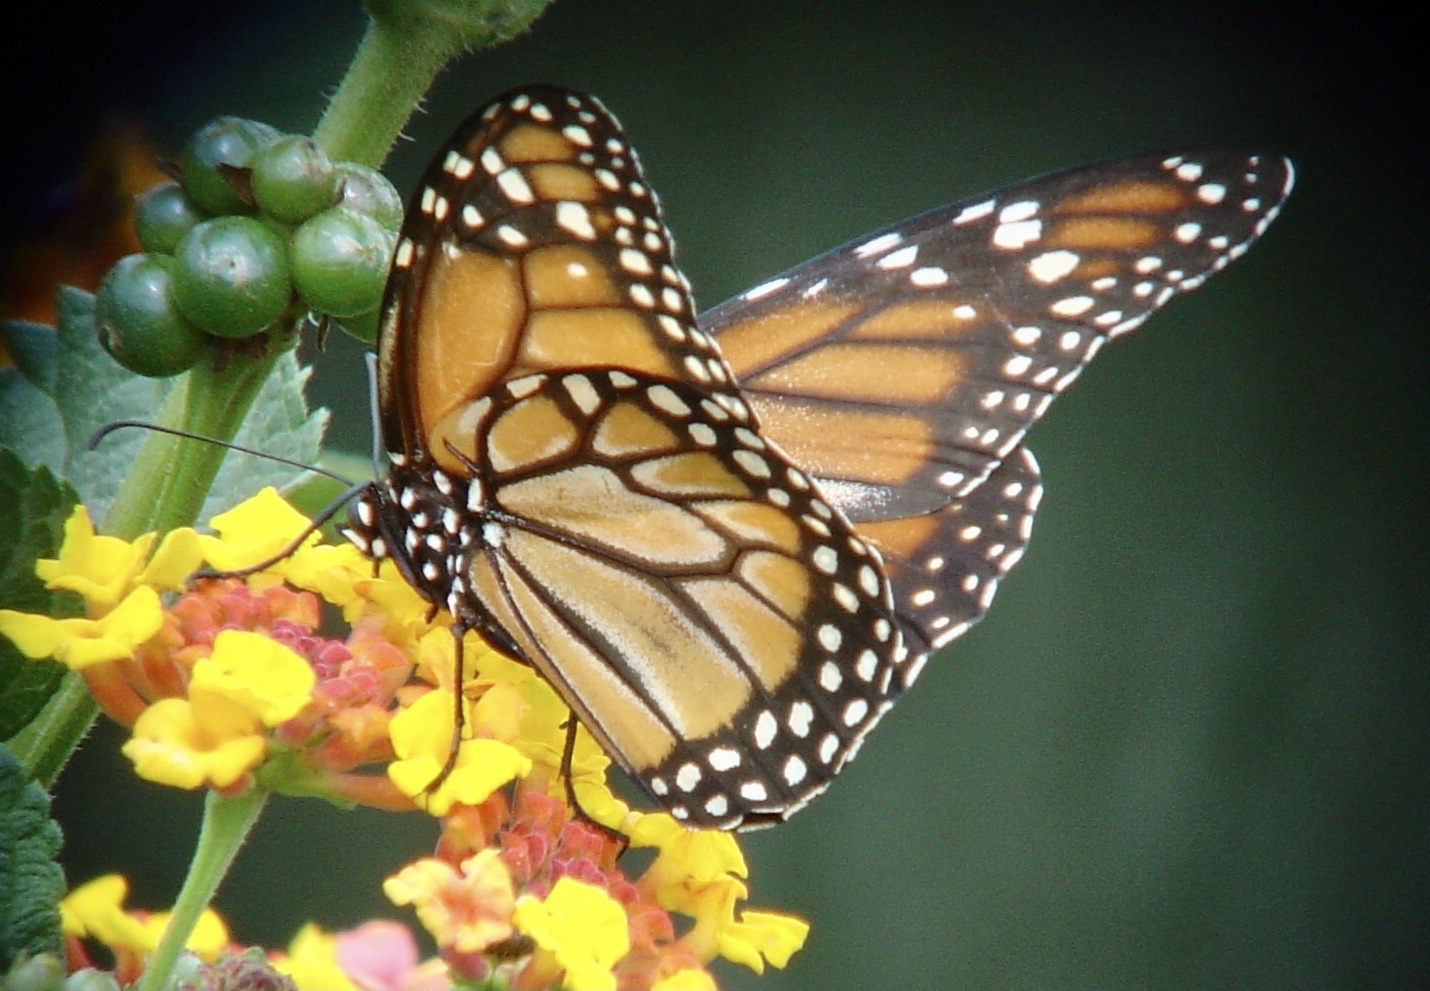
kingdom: Animalia
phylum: Arthropoda
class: Insecta
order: Lepidoptera
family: Nymphalidae
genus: Danaus
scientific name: Danaus erippus
